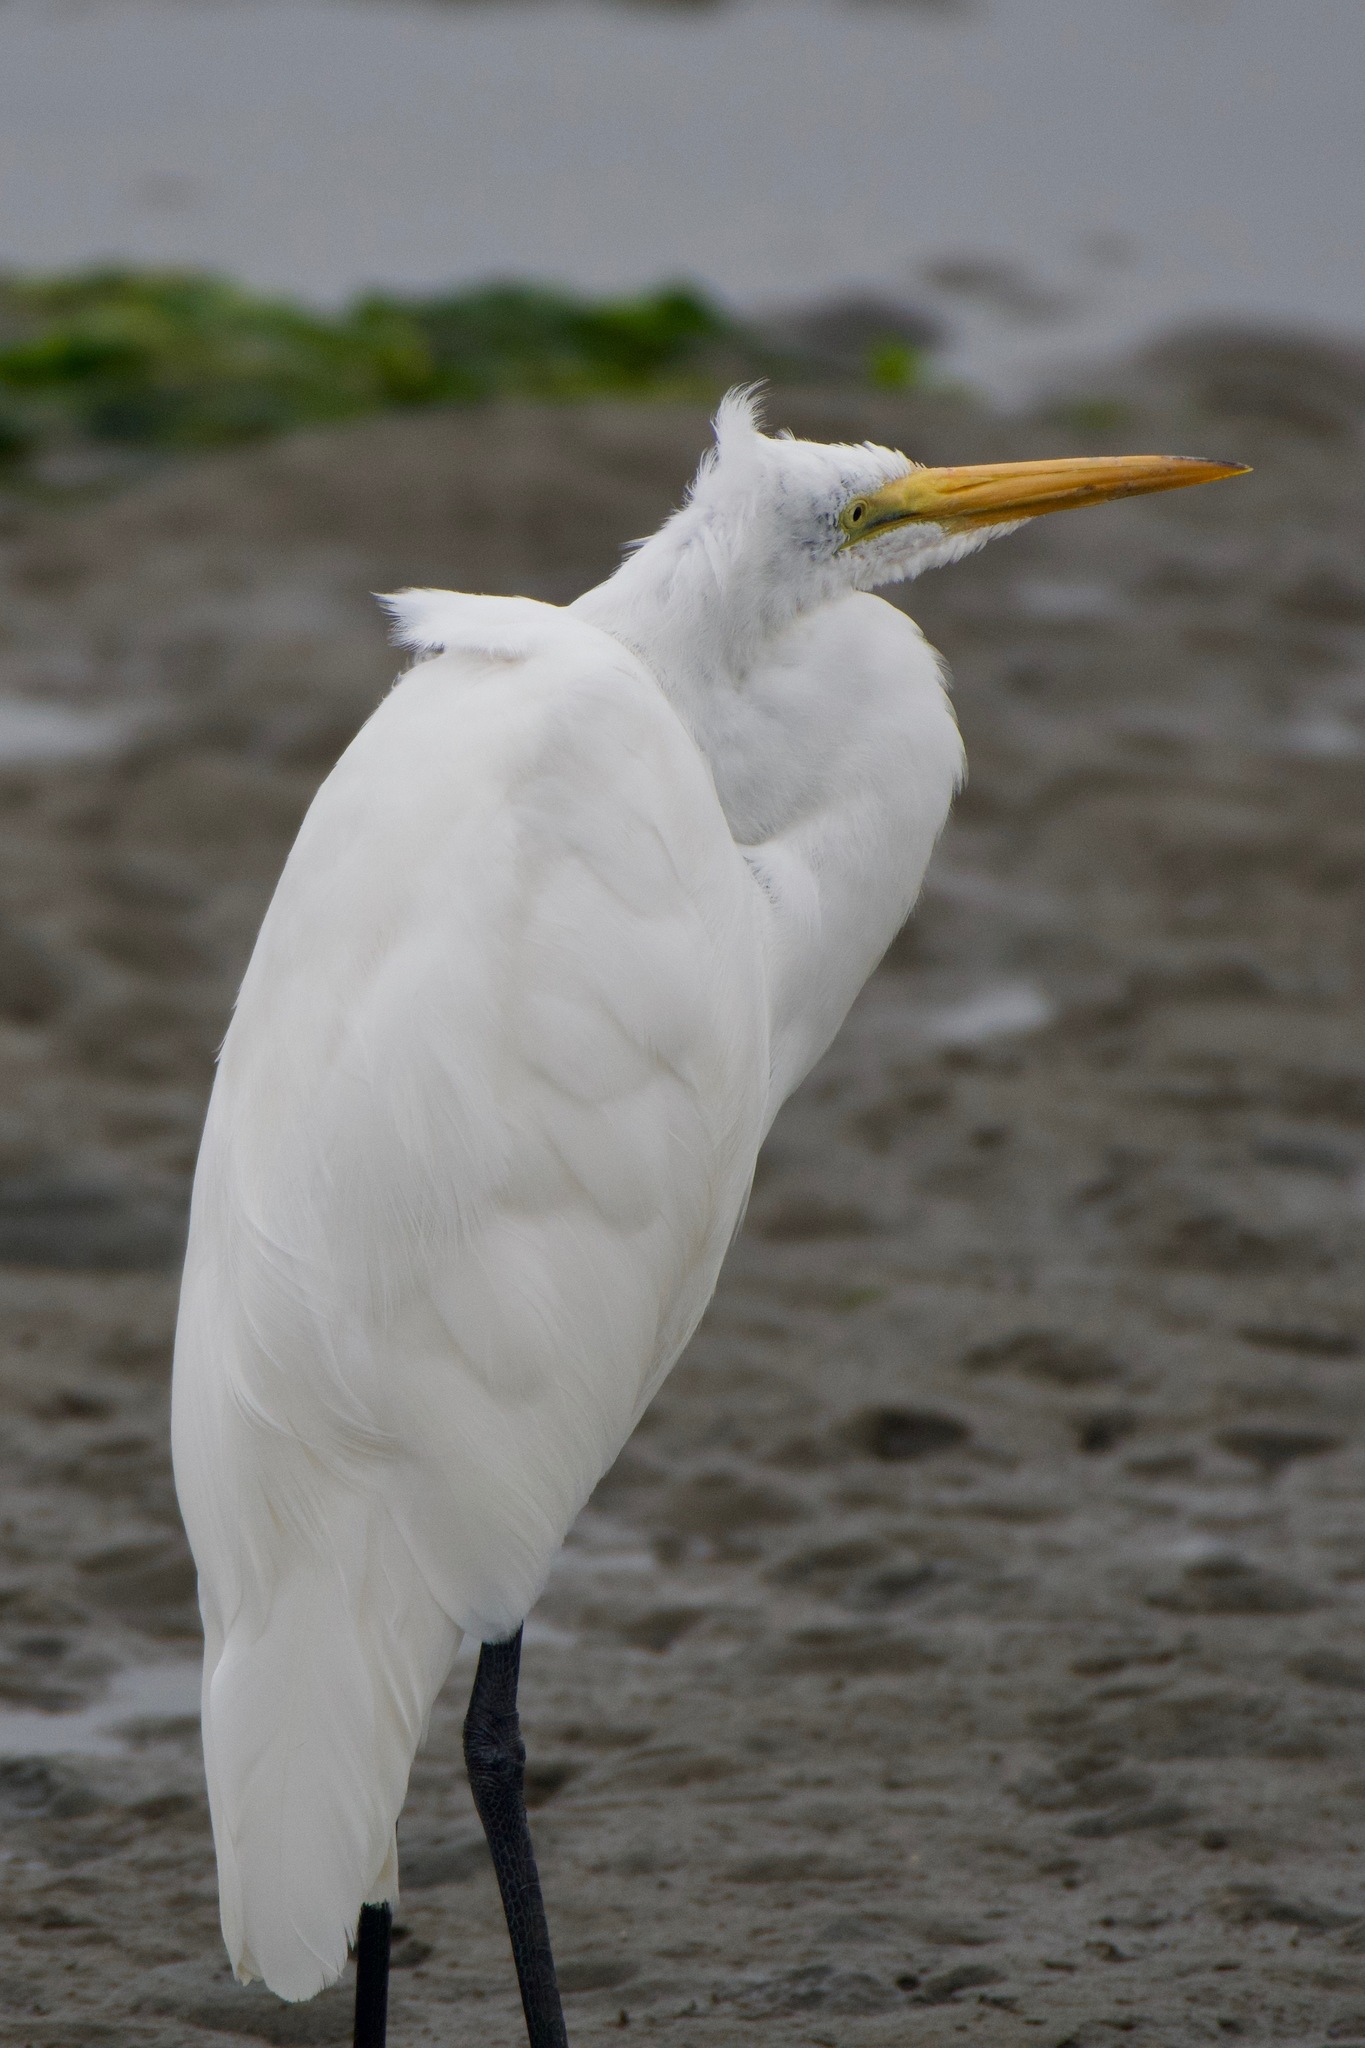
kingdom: Animalia
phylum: Chordata
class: Aves
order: Pelecaniformes
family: Ardeidae
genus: Ardea
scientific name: Ardea alba
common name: Great egret
